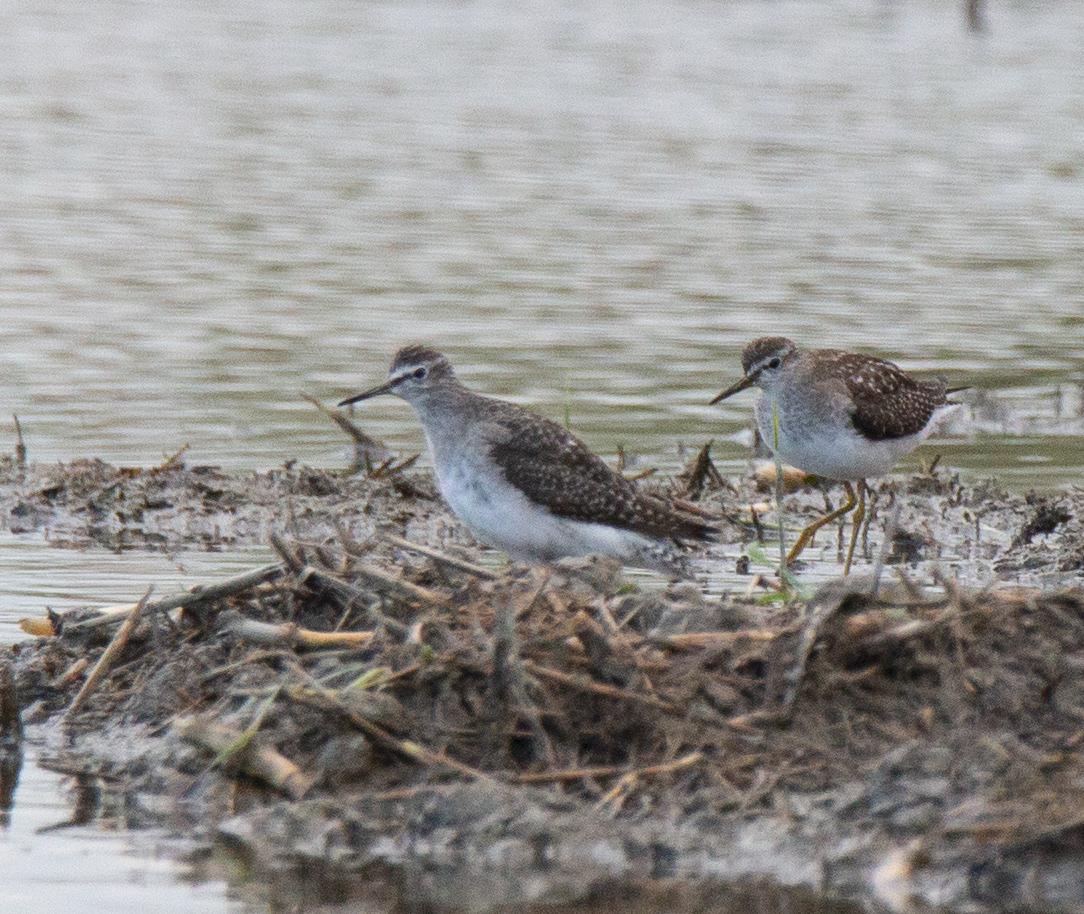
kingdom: Animalia
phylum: Chordata
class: Aves
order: Charadriiformes
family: Scolopacidae
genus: Tringa
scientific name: Tringa glareola
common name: Wood sandpiper
